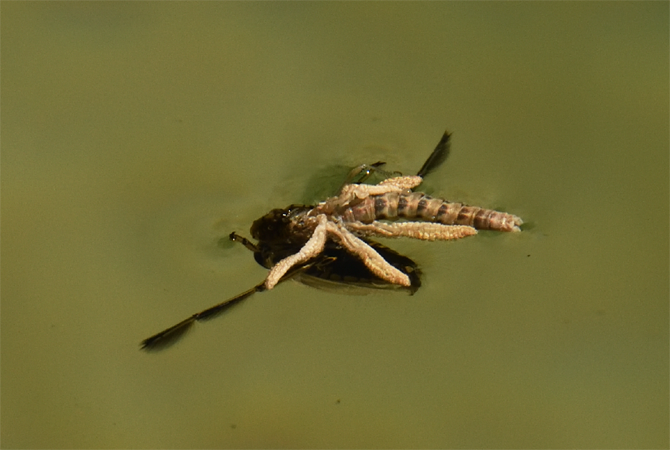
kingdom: Animalia
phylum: Arthropoda
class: Insecta
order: Hemiptera
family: Notonectidae
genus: Notonecta
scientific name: Notonecta
